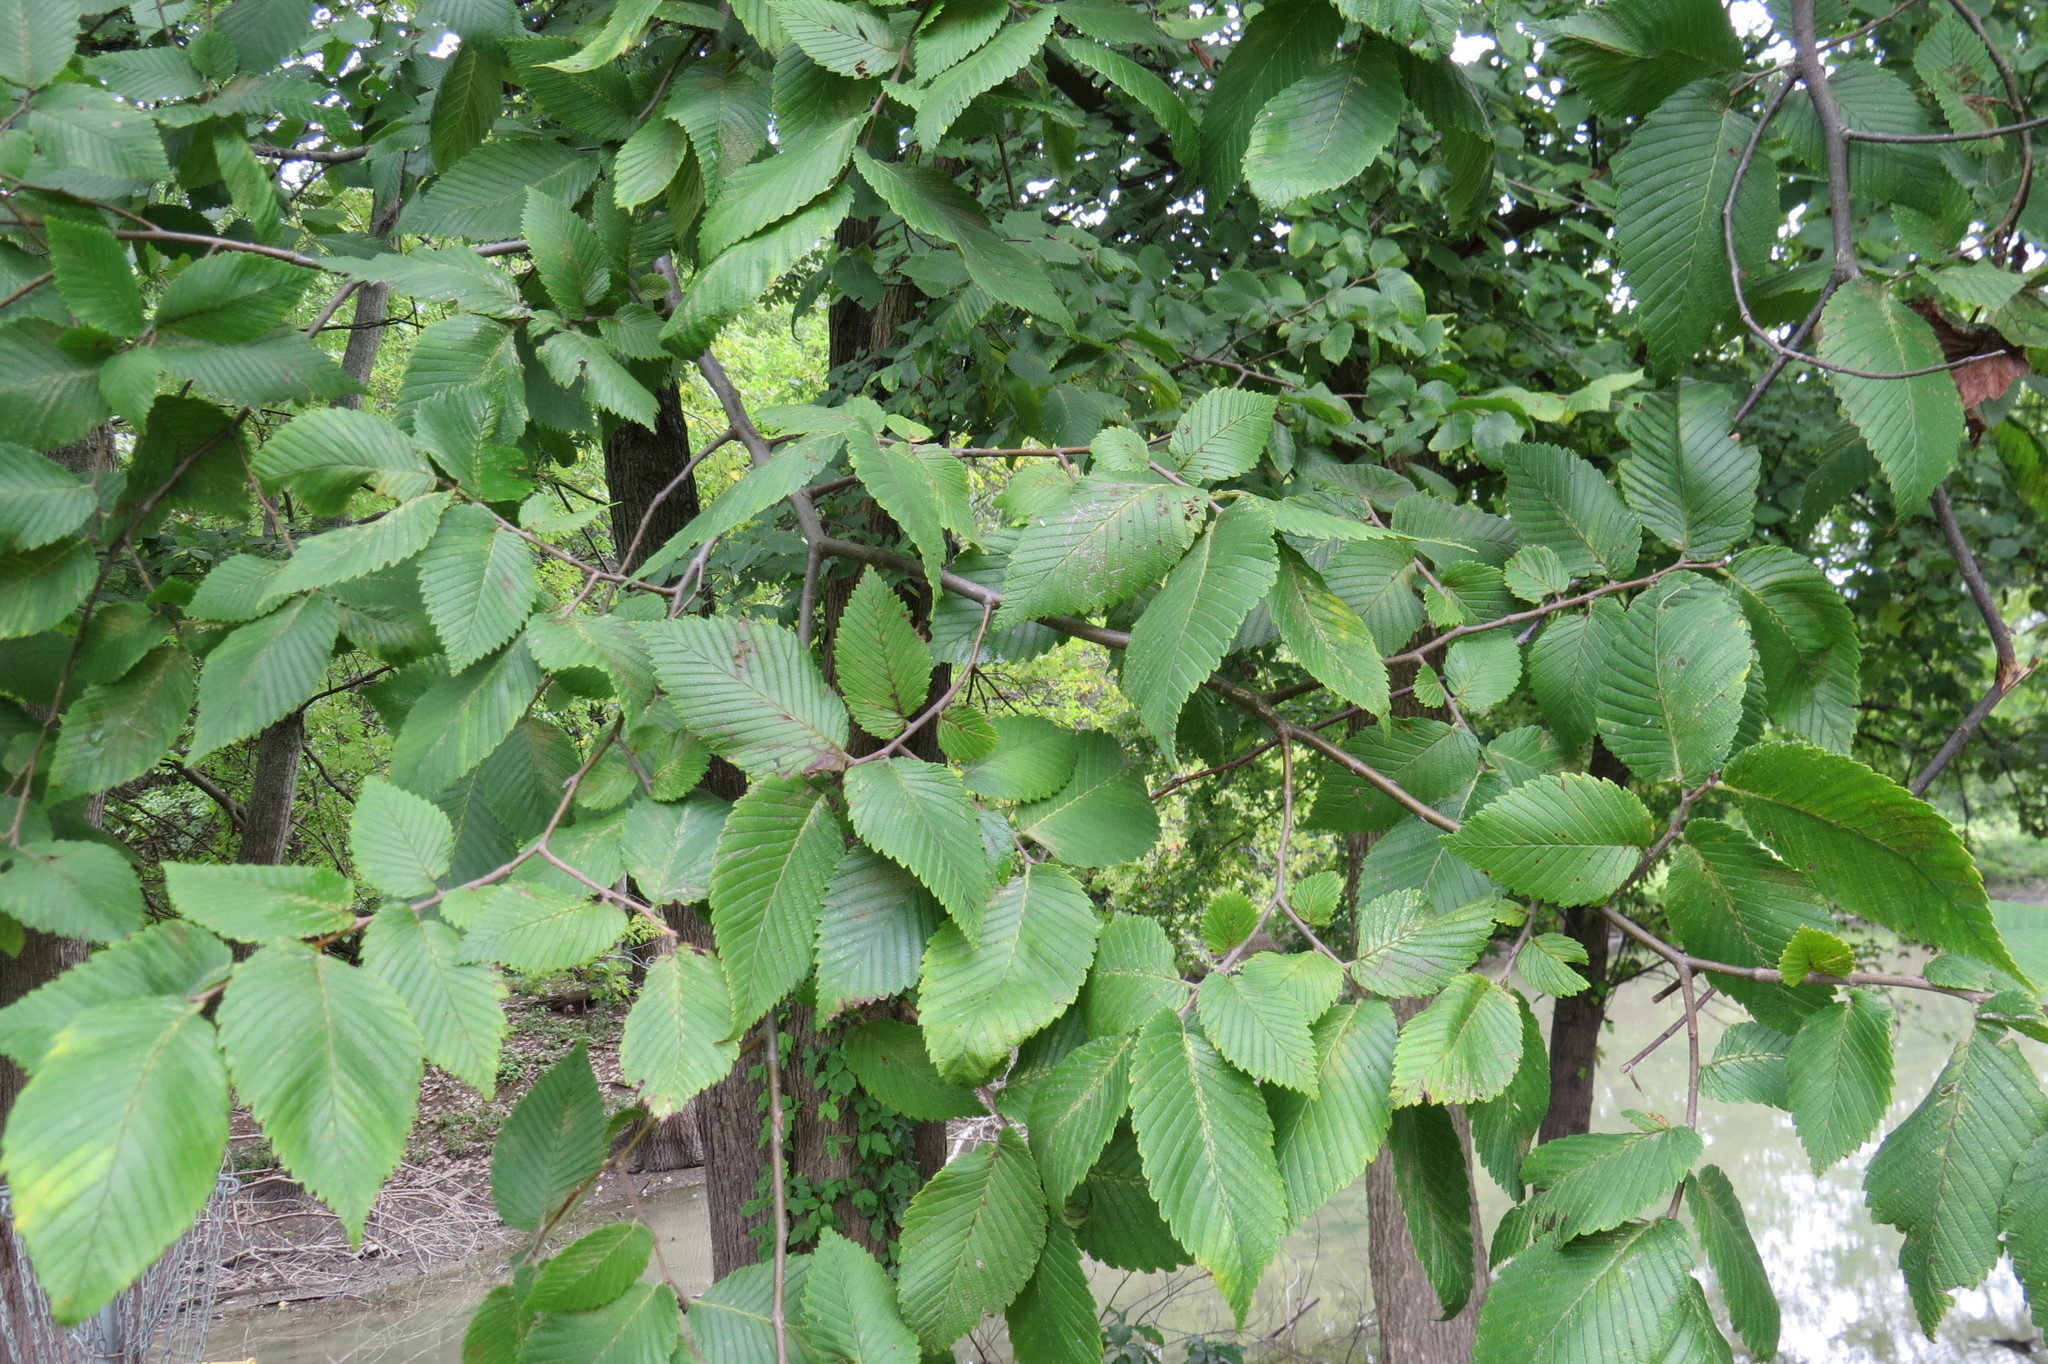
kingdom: Plantae
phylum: Tracheophyta
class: Magnoliopsida
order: Rosales
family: Ulmaceae
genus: Ulmus
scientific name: Ulmus americana
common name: American elm
